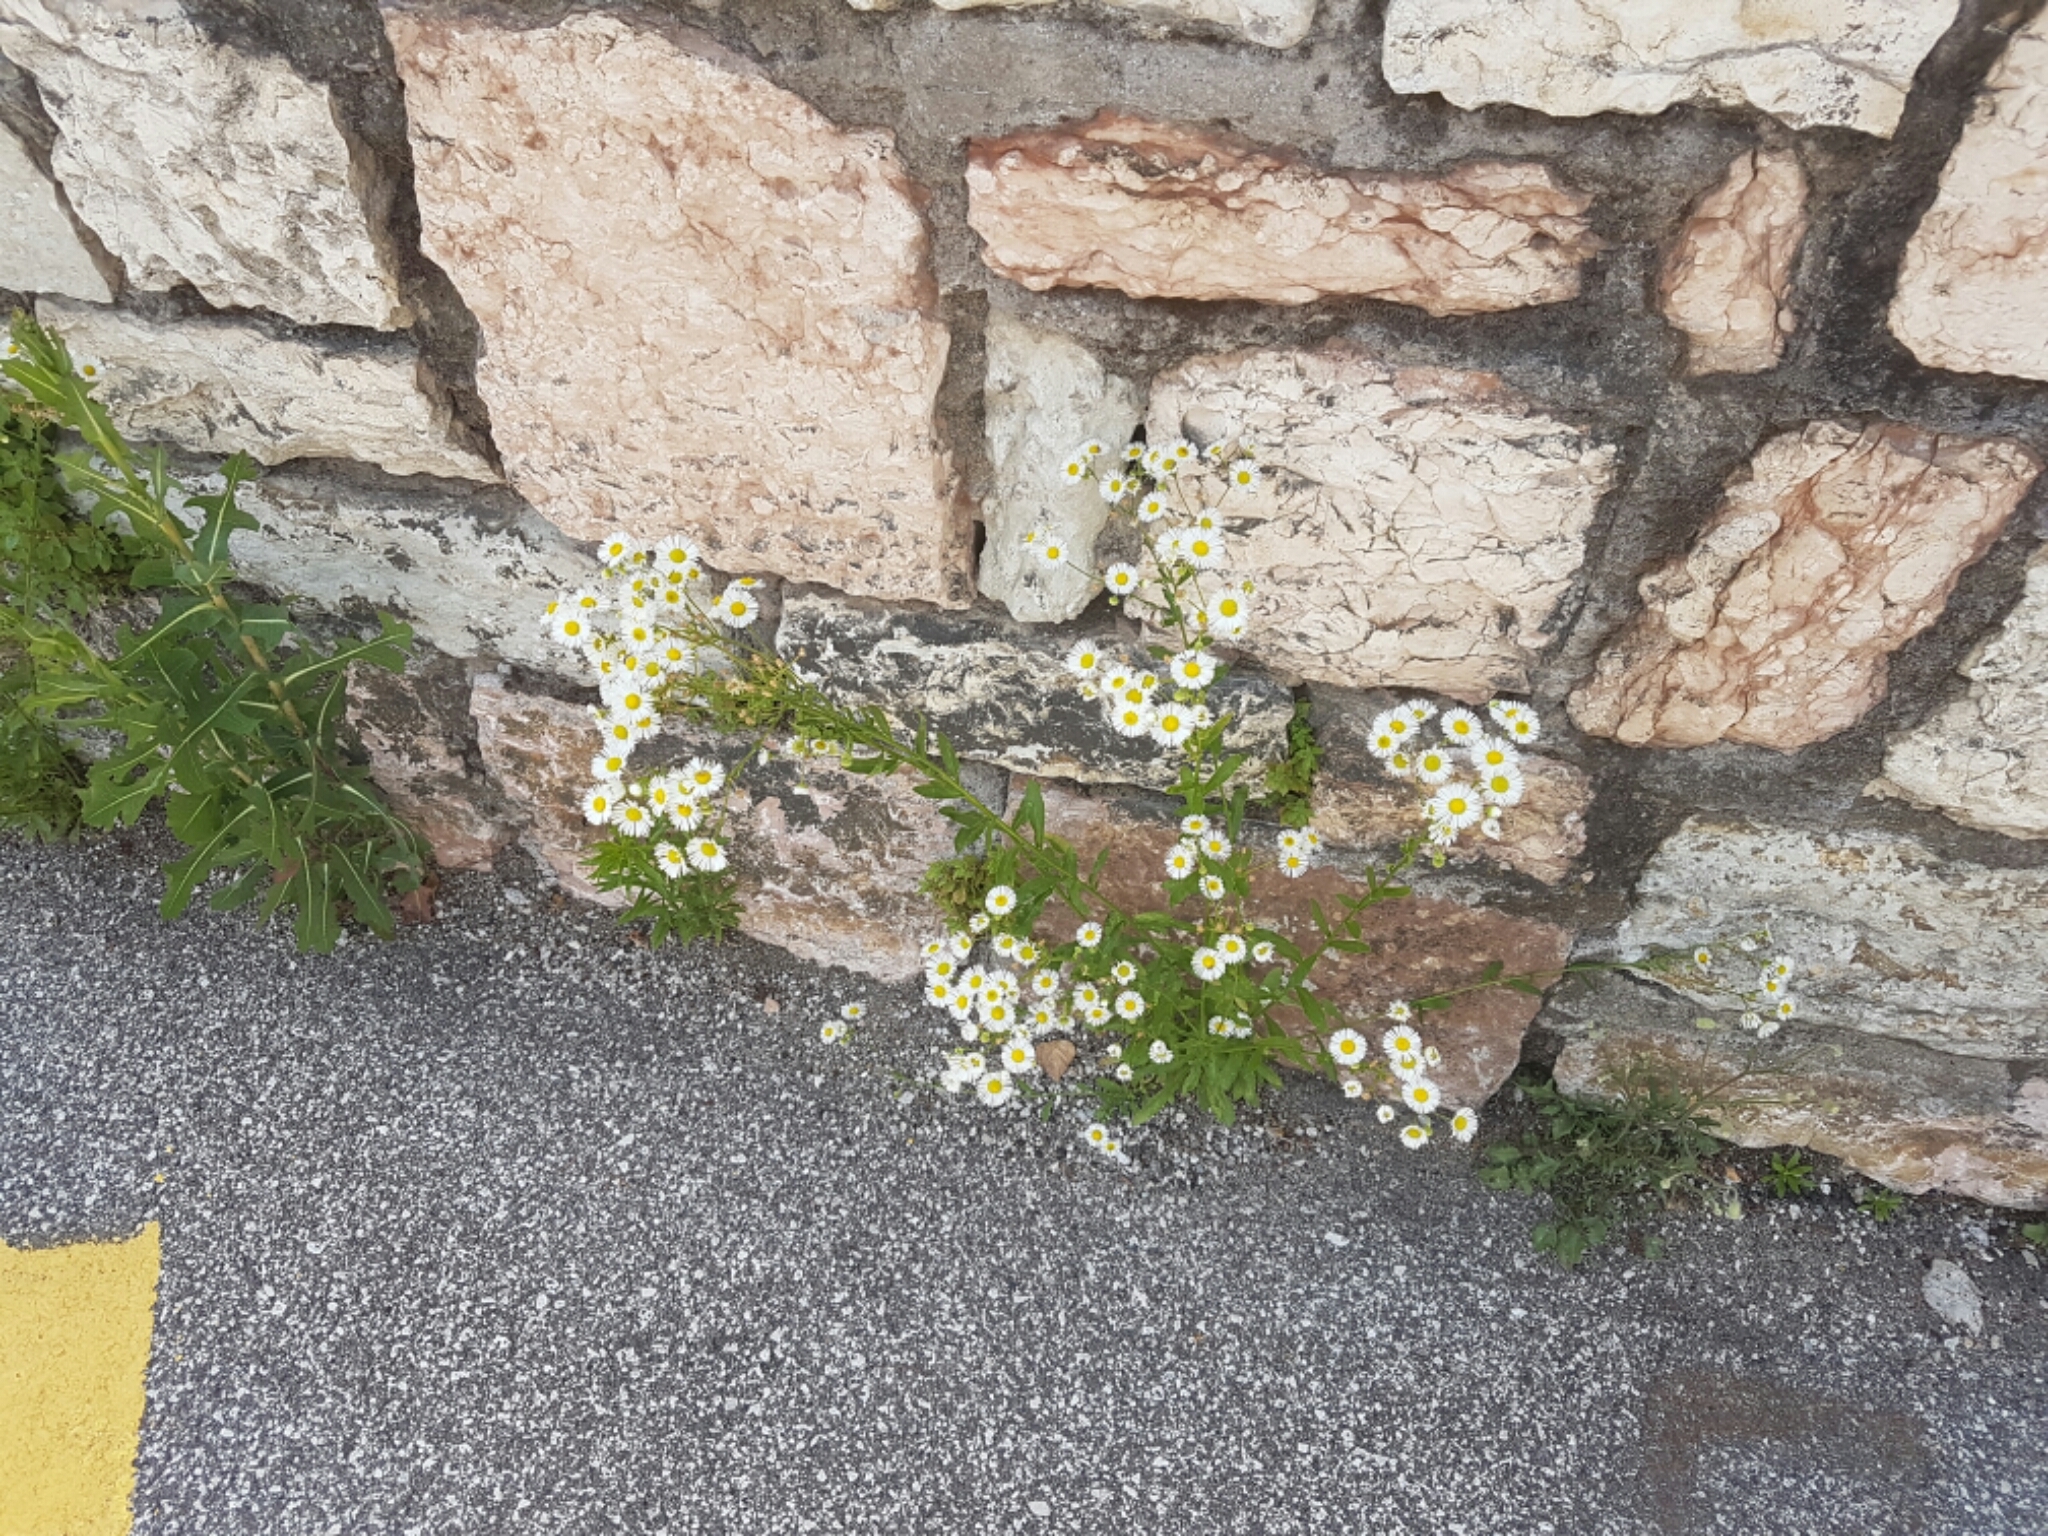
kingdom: Plantae
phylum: Tracheophyta
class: Magnoliopsida
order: Asterales
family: Asteraceae
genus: Erigeron
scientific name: Erigeron annuus
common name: Tall fleabane
